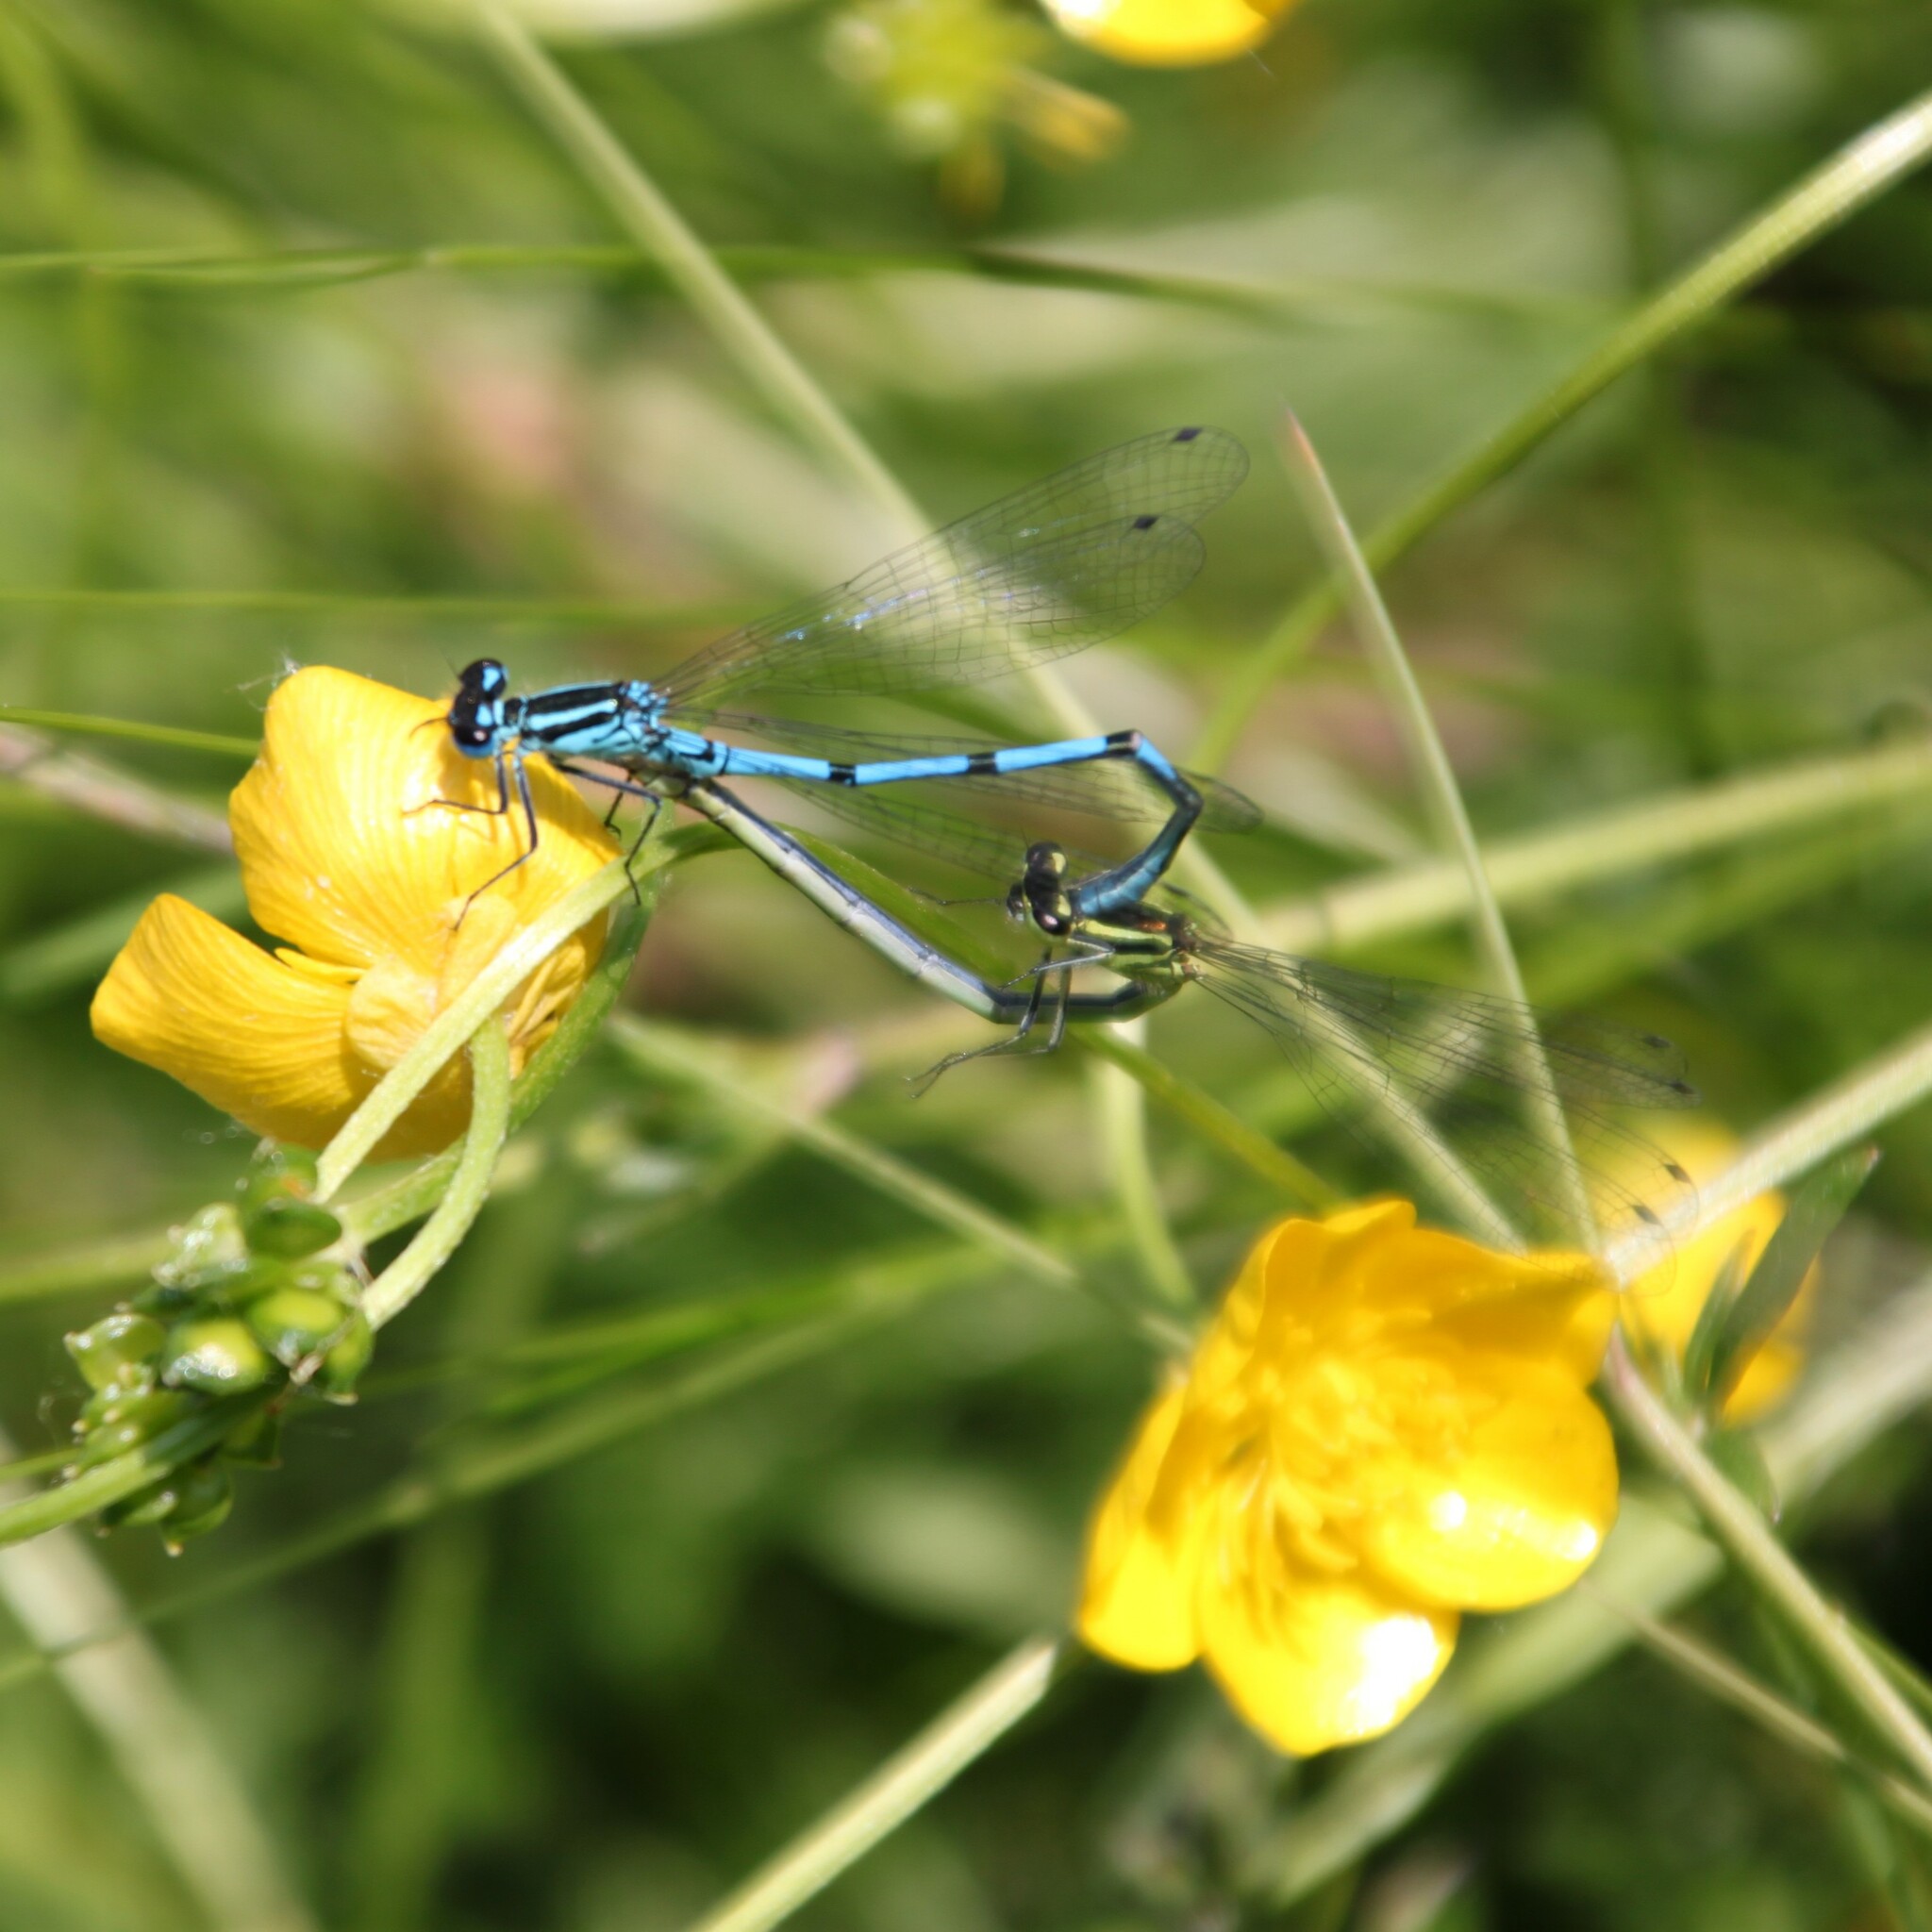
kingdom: Animalia
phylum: Arthropoda
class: Insecta
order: Odonata
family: Coenagrionidae
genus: Coenagrion
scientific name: Coenagrion puella
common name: Azure damselfly
